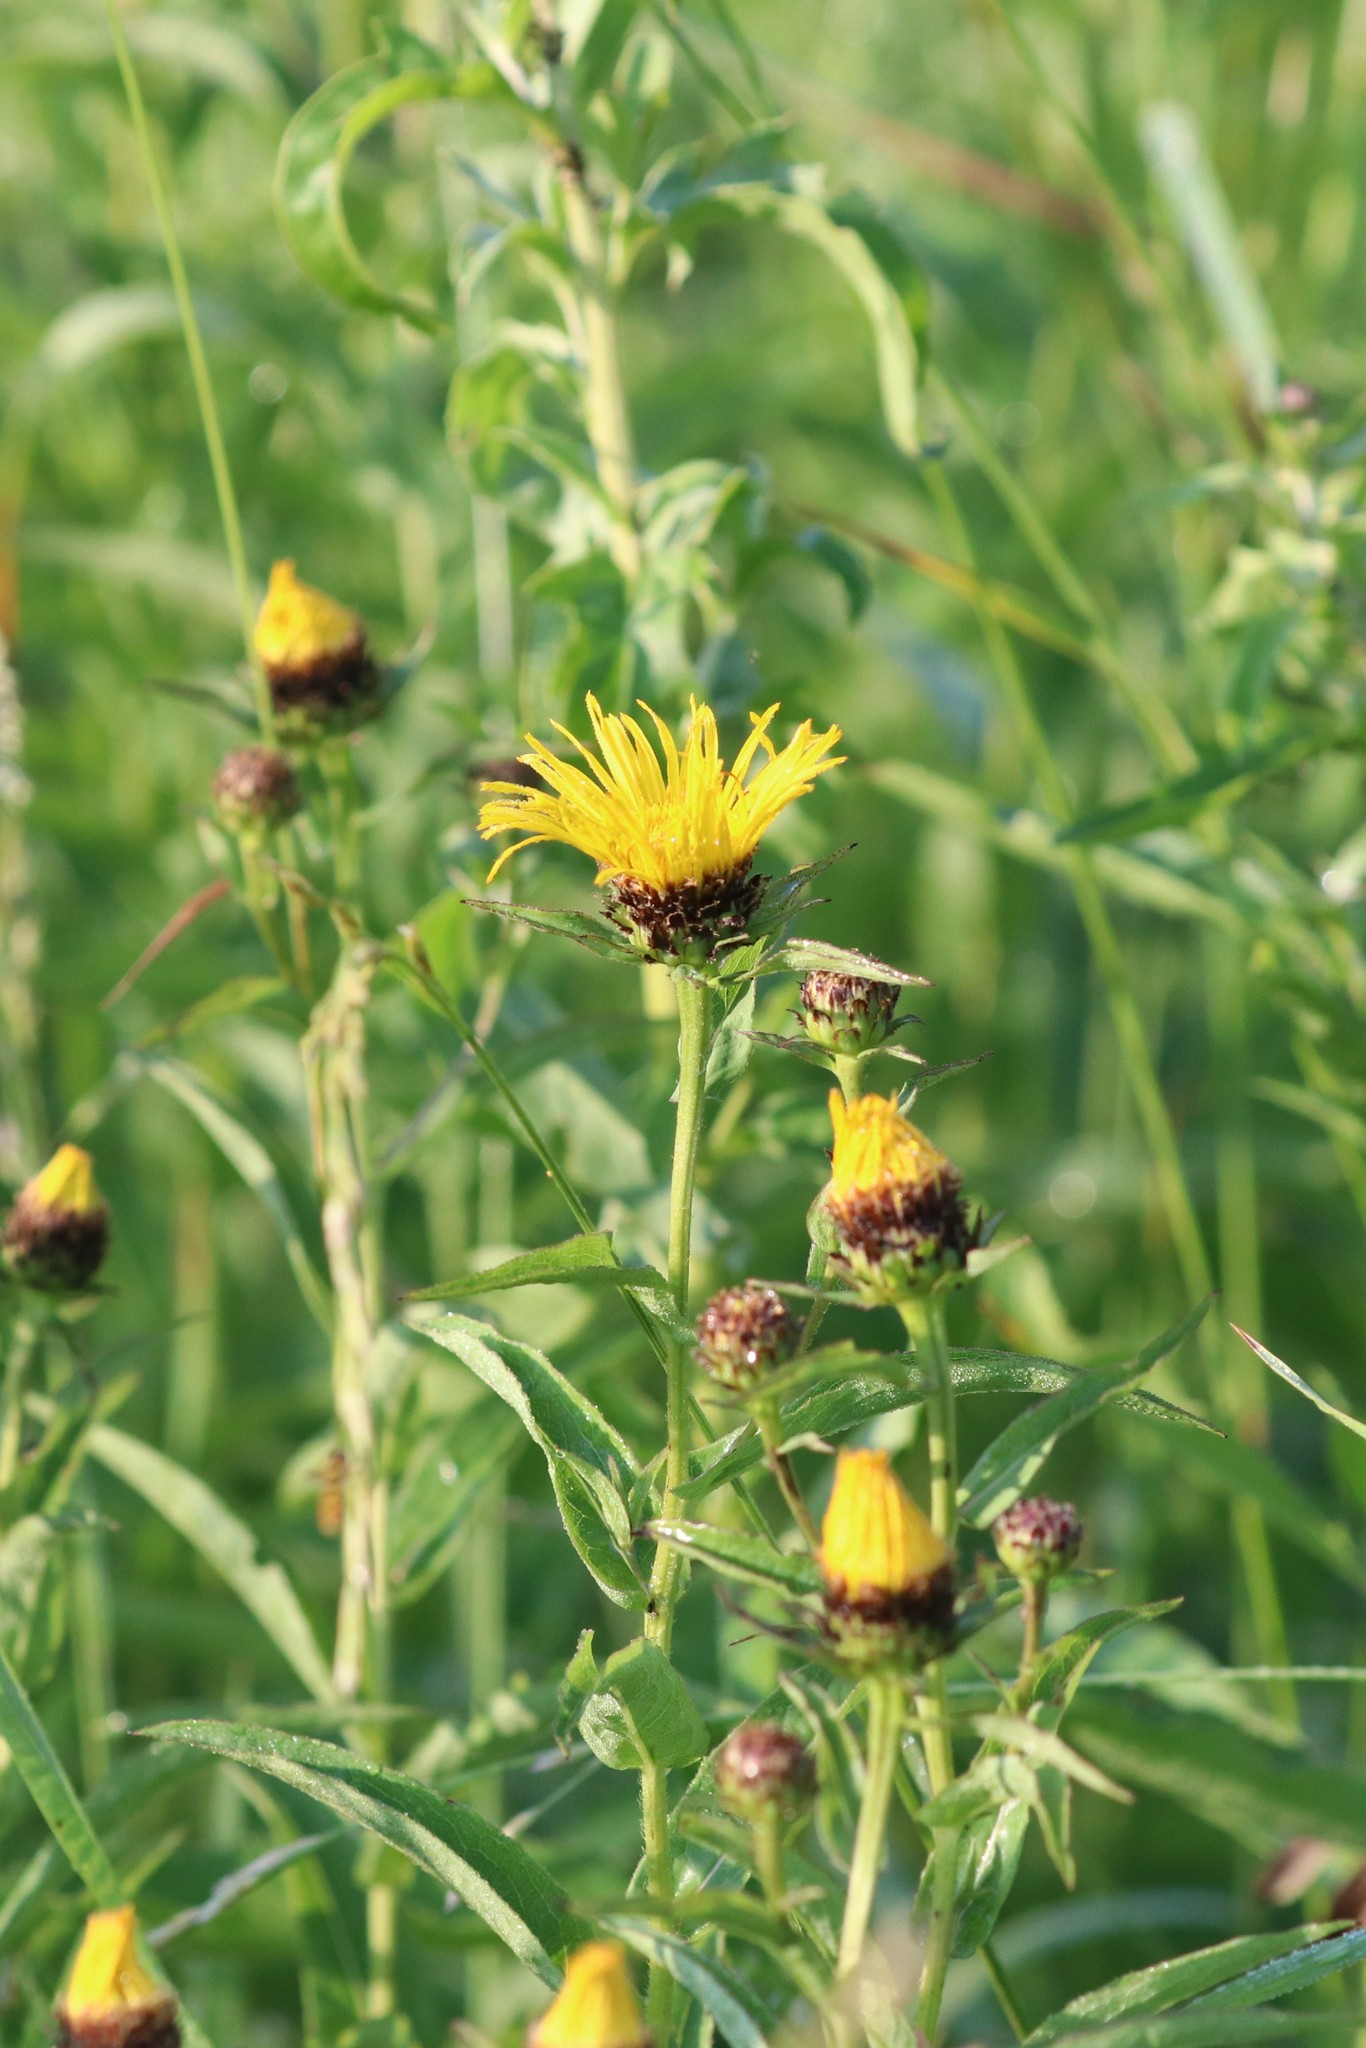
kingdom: Plantae
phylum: Tracheophyta
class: Magnoliopsida
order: Asterales
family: Asteraceae
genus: Pentanema
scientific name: Pentanema salicinum
